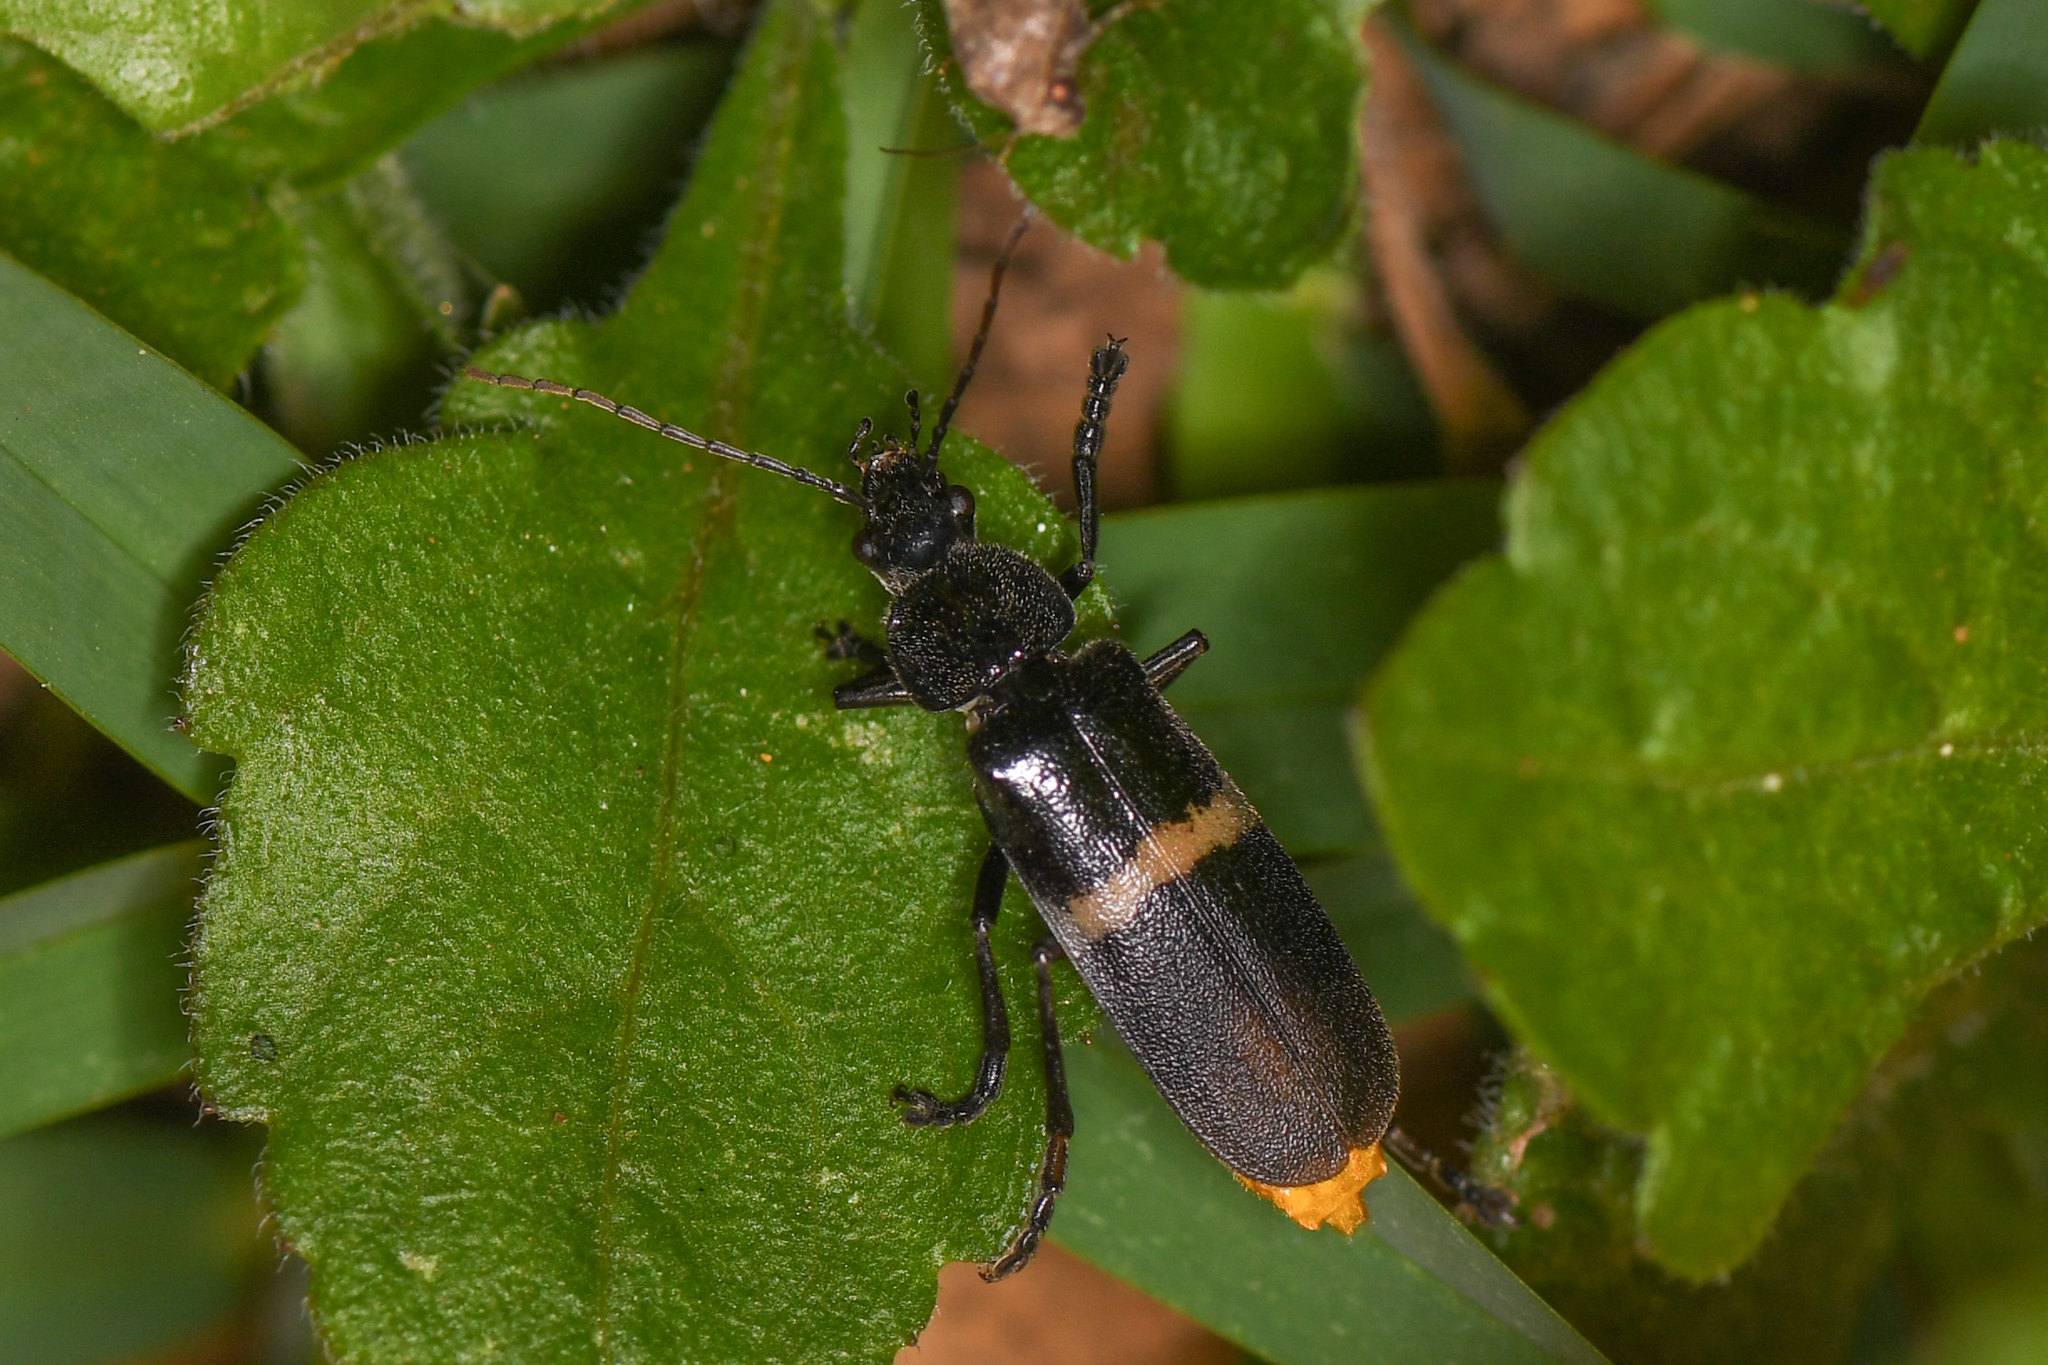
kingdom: Animalia
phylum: Arthropoda
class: Insecta
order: Coleoptera
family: Cantharidae
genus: Chauliognathus
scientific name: Chauliognathus
